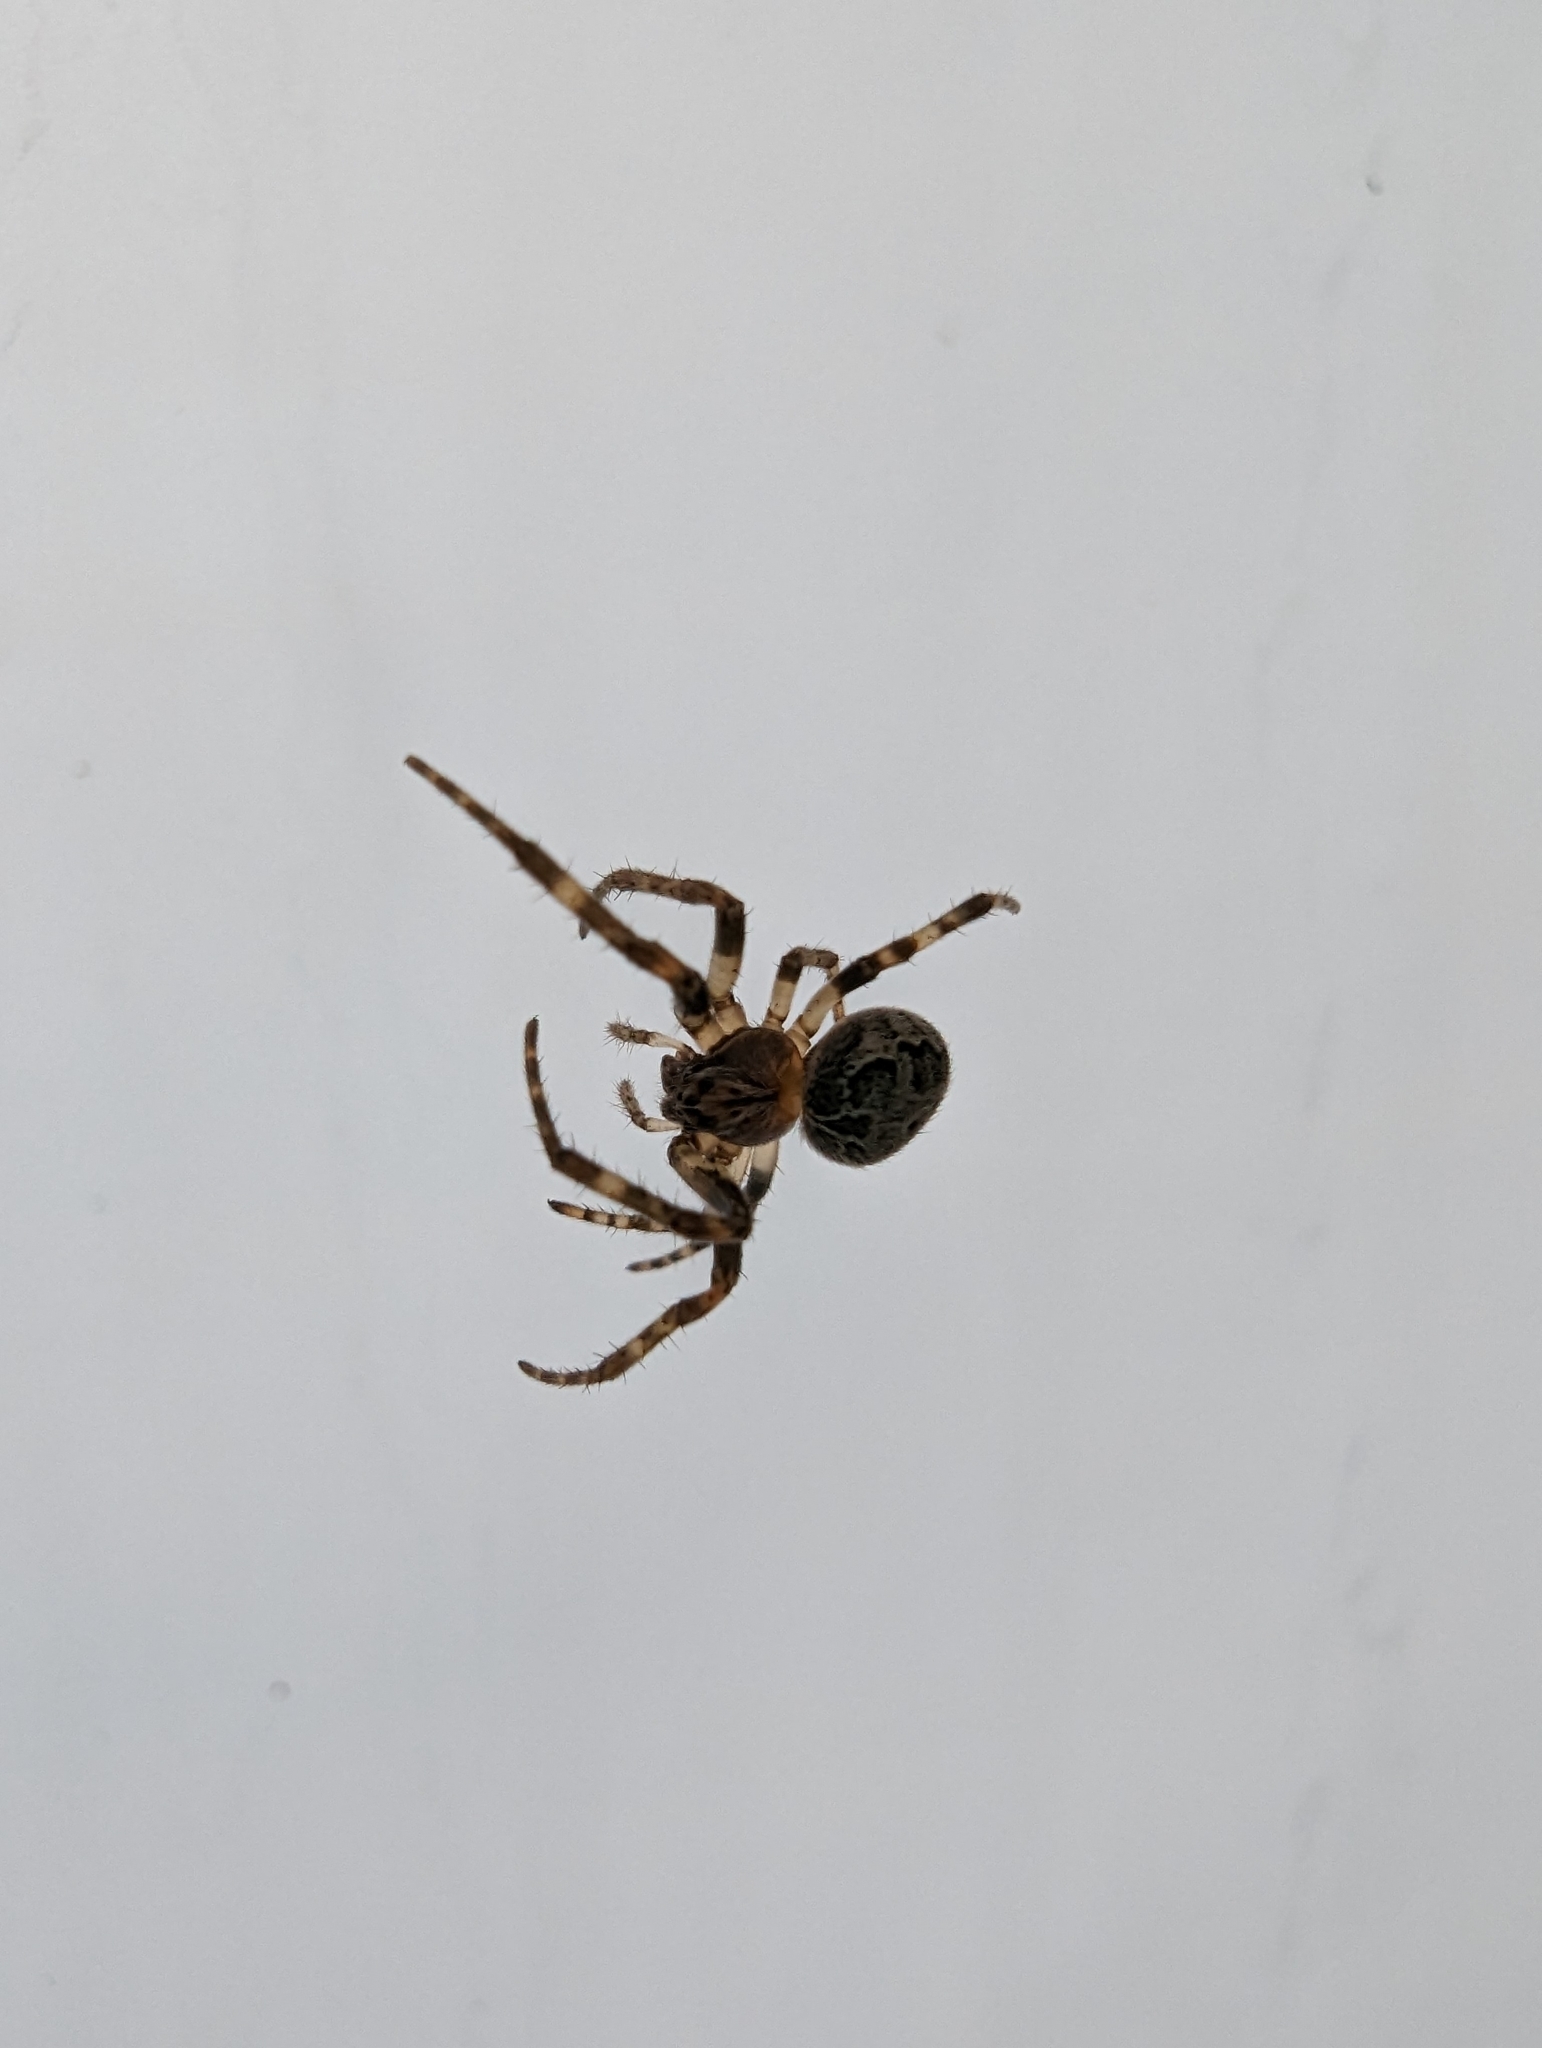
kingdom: Animalia
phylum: Arthropoda
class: Arachnida
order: Araneae
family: Araneidae
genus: Larinioides
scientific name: Larinioides sclopetarius
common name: Bridge orbweaver
